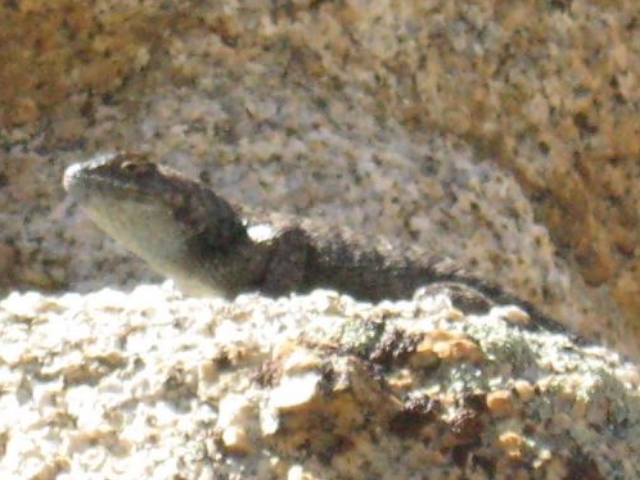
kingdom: Animalia
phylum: Chordata
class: Squamata
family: Phrynosomatidae
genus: Sceloporus
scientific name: Sceloporus occidentalis
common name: Western fence lizard
